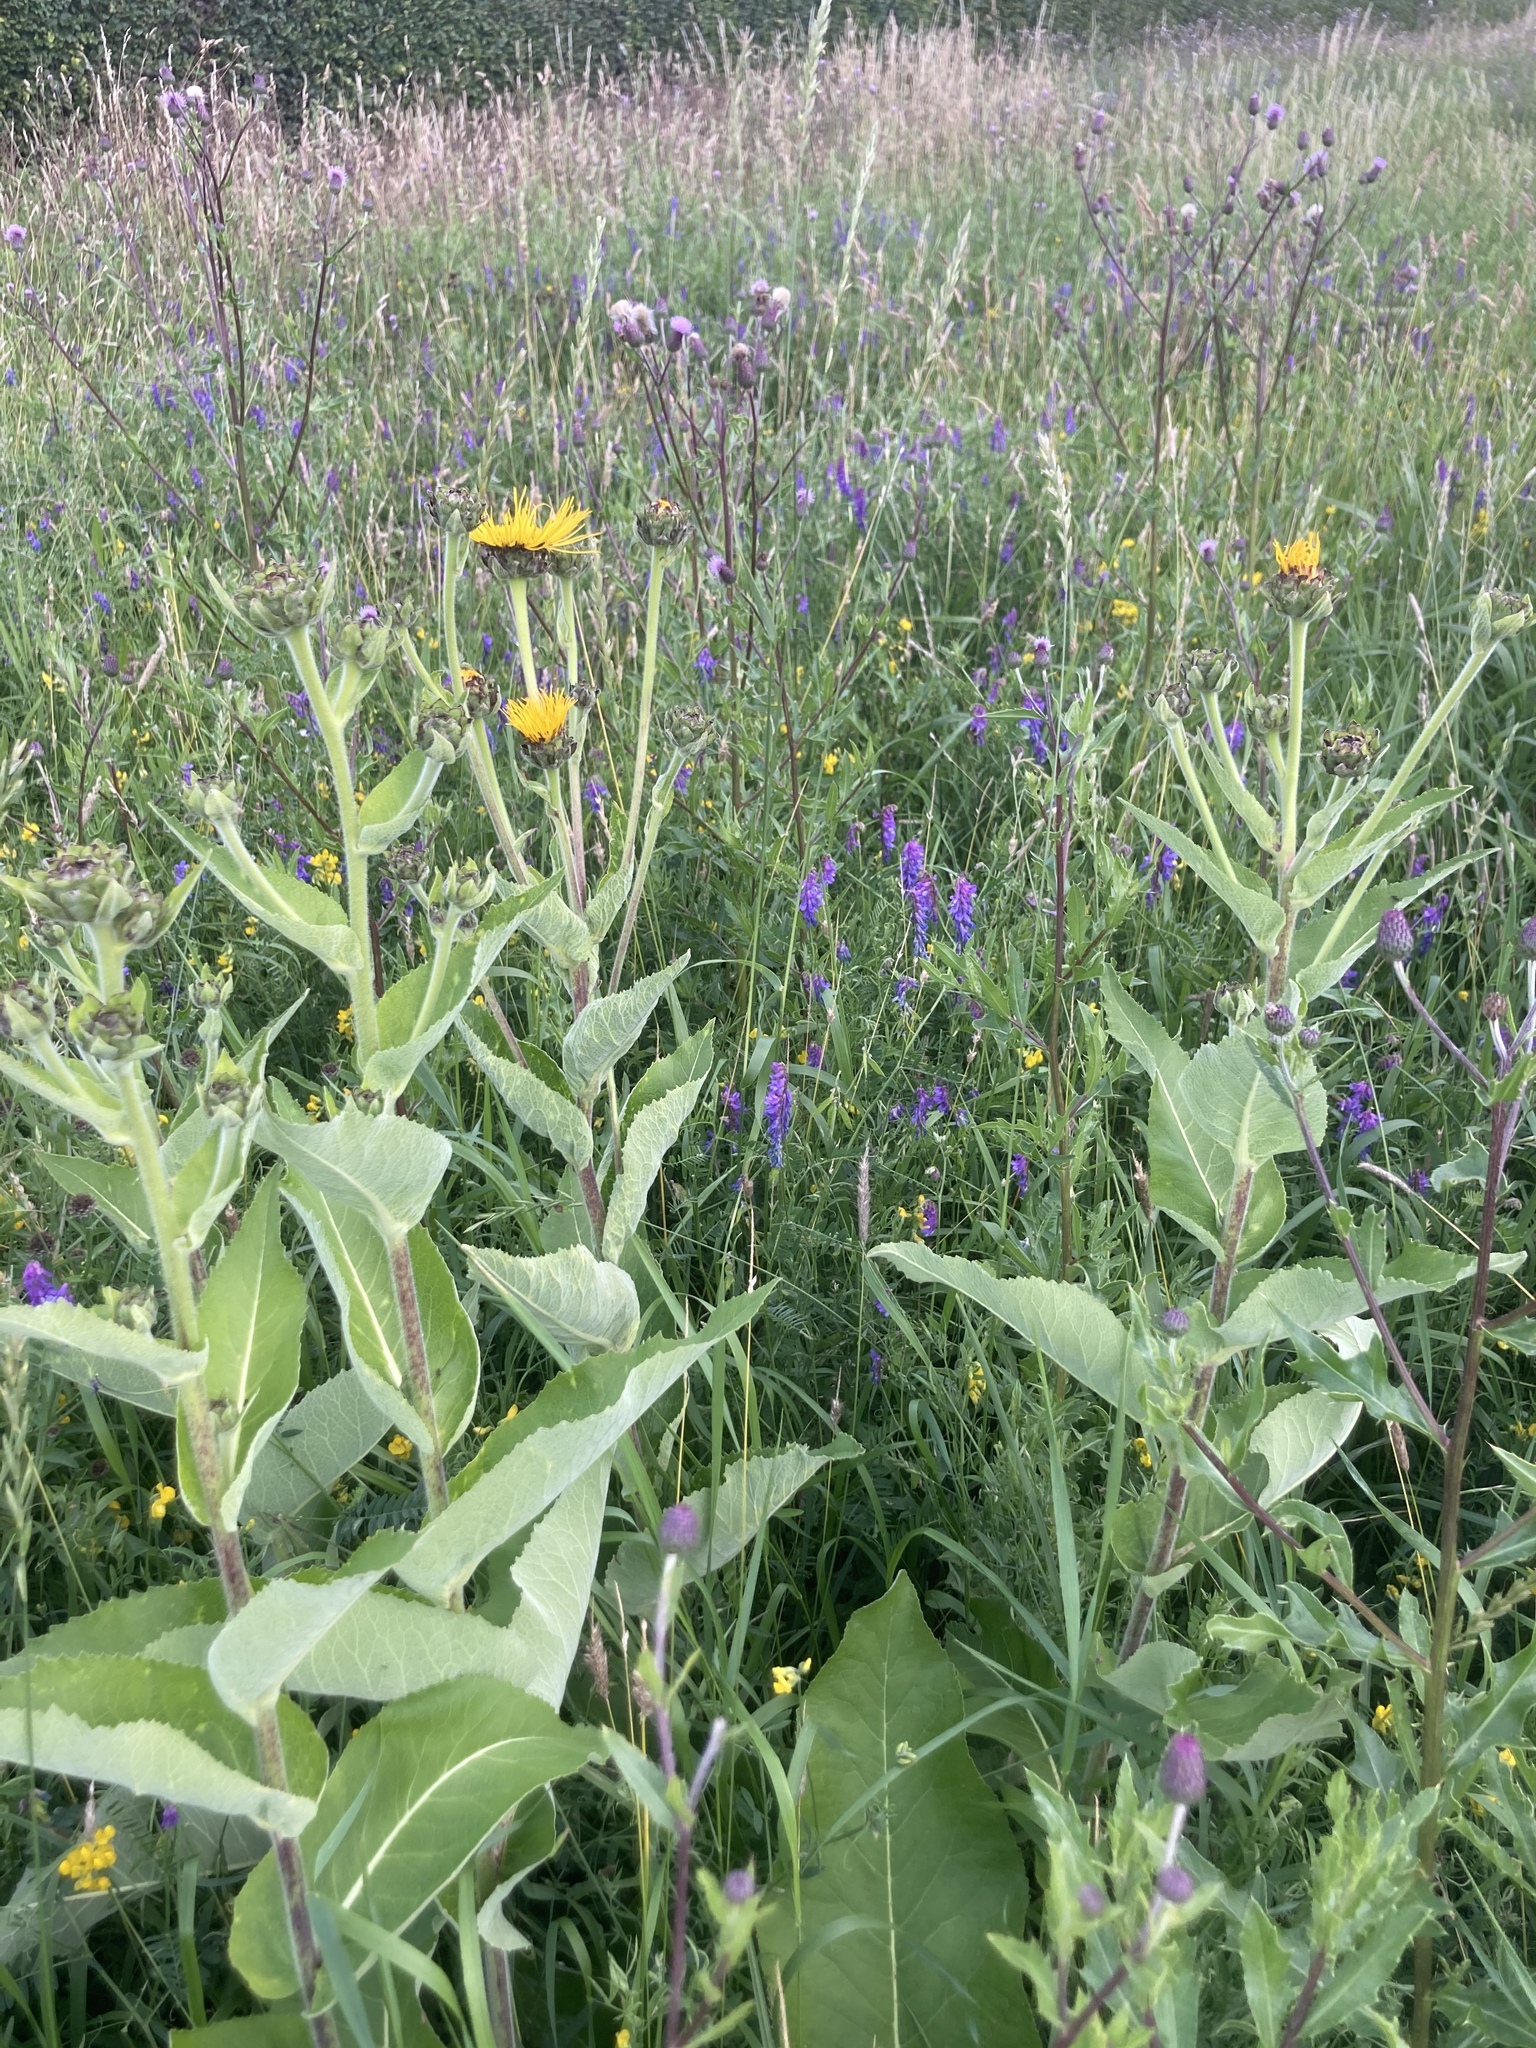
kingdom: Plantae
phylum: Tracheophyta
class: Magnoliopsida
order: Asterales
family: Asteraceae
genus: Inula
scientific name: Inula helenium
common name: Elecampane
